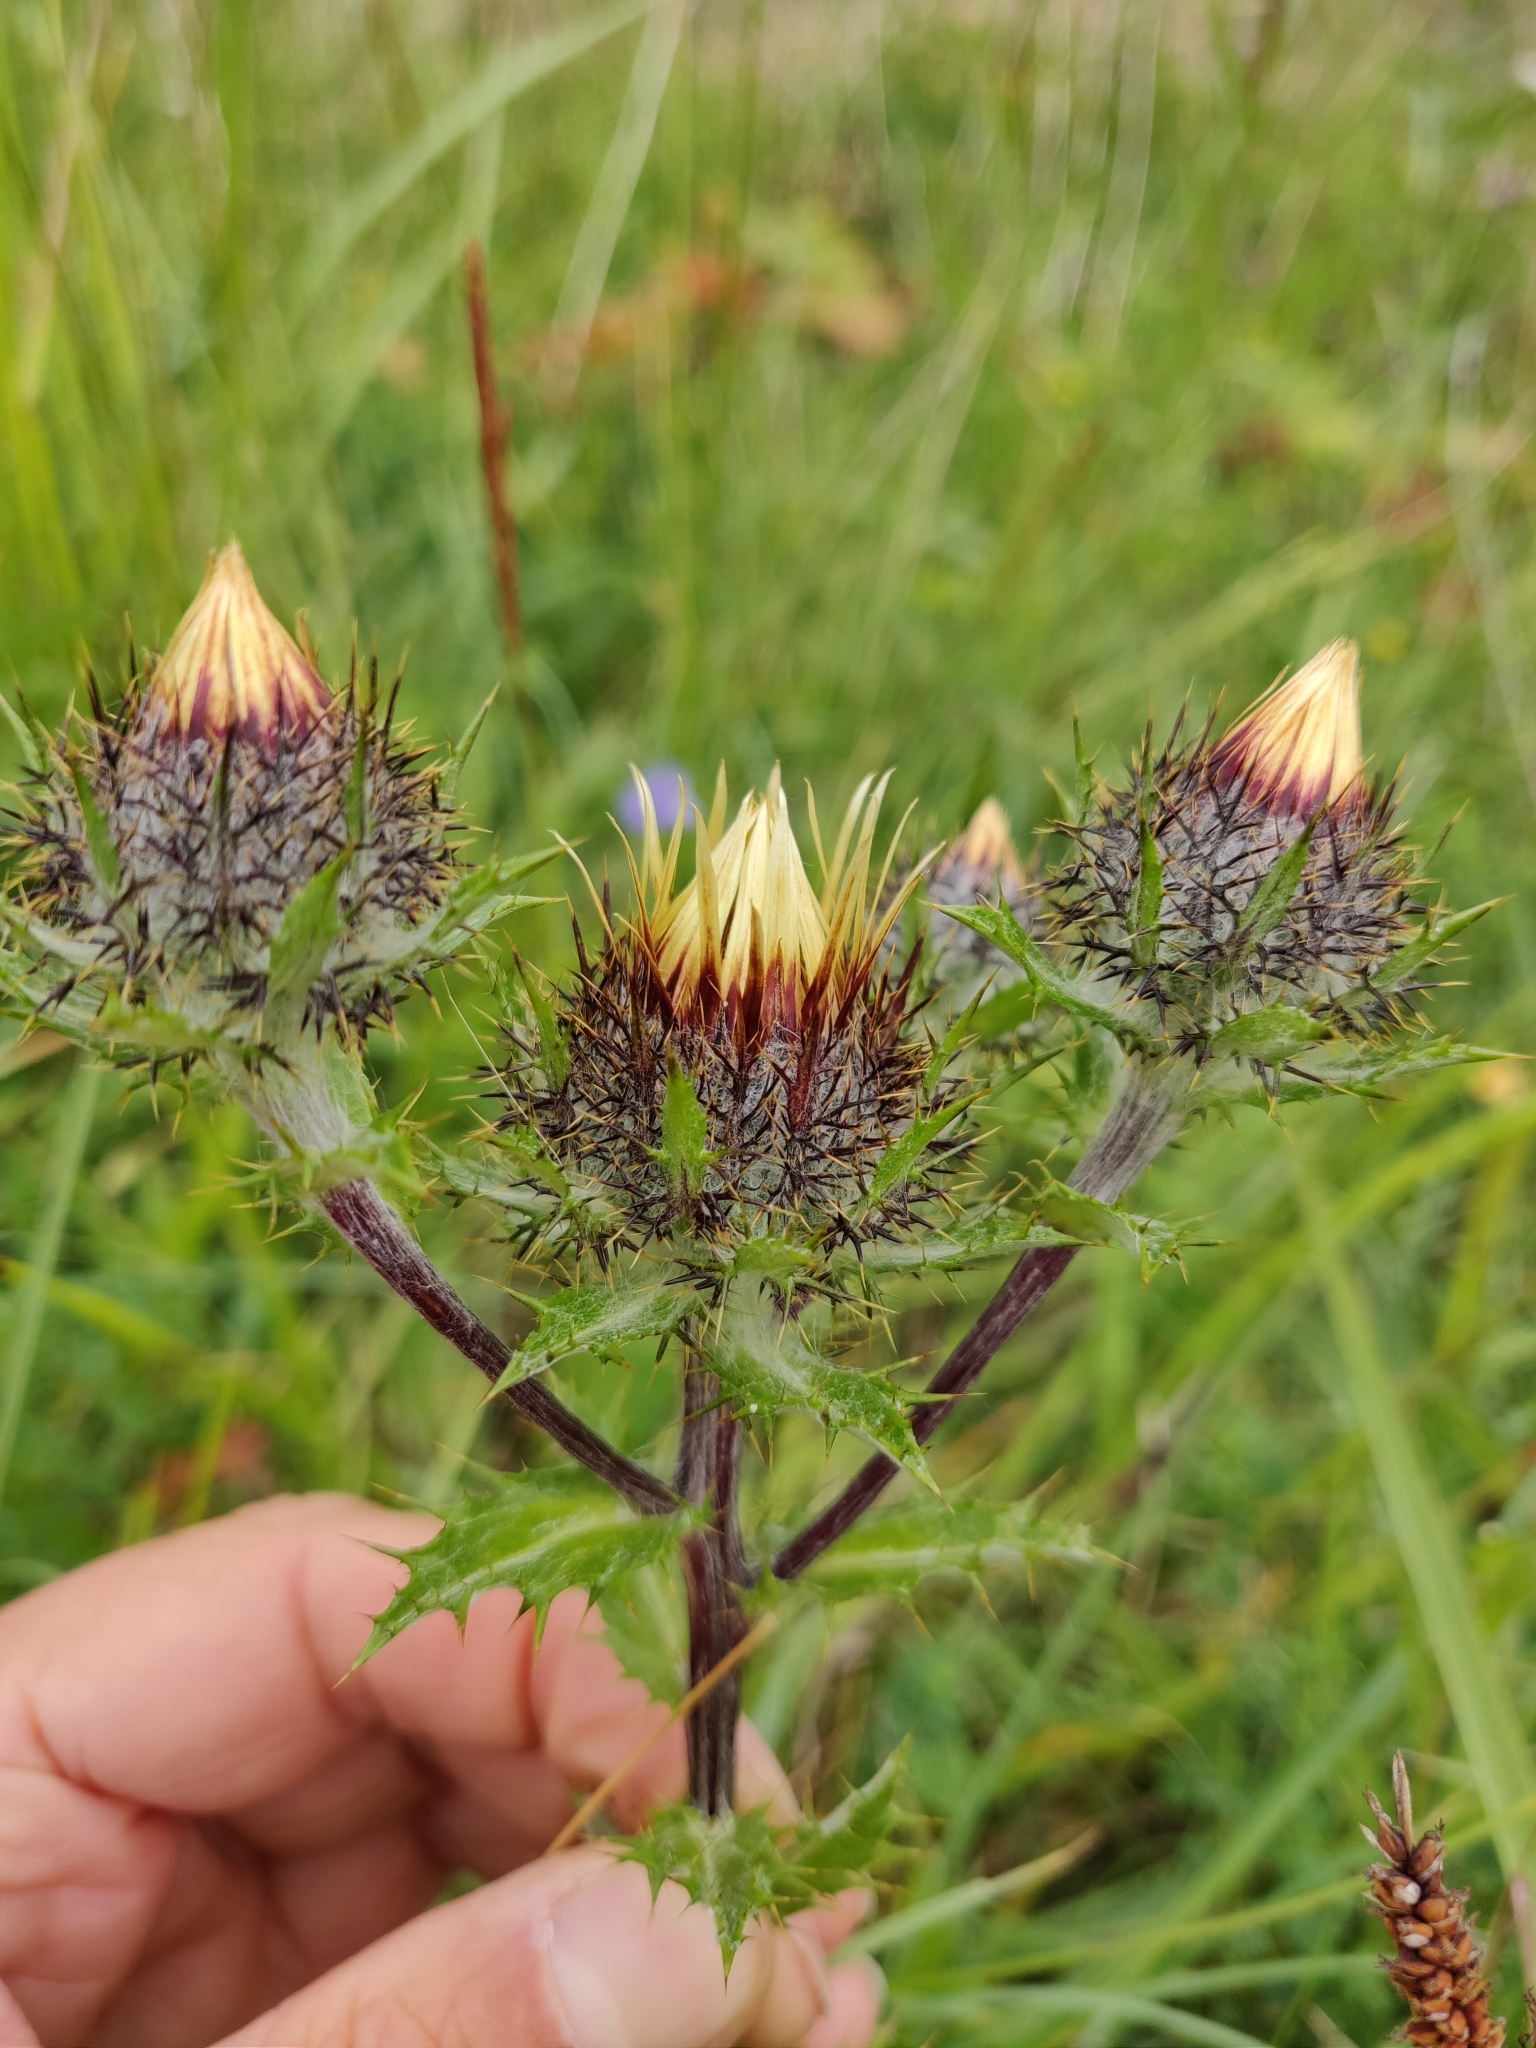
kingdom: Plantae
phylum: Tracheophyta
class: Magnoliopsida
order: Asterales
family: Asteraceae
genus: Carlina
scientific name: Carlina vulgaris
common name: Carline thistle
